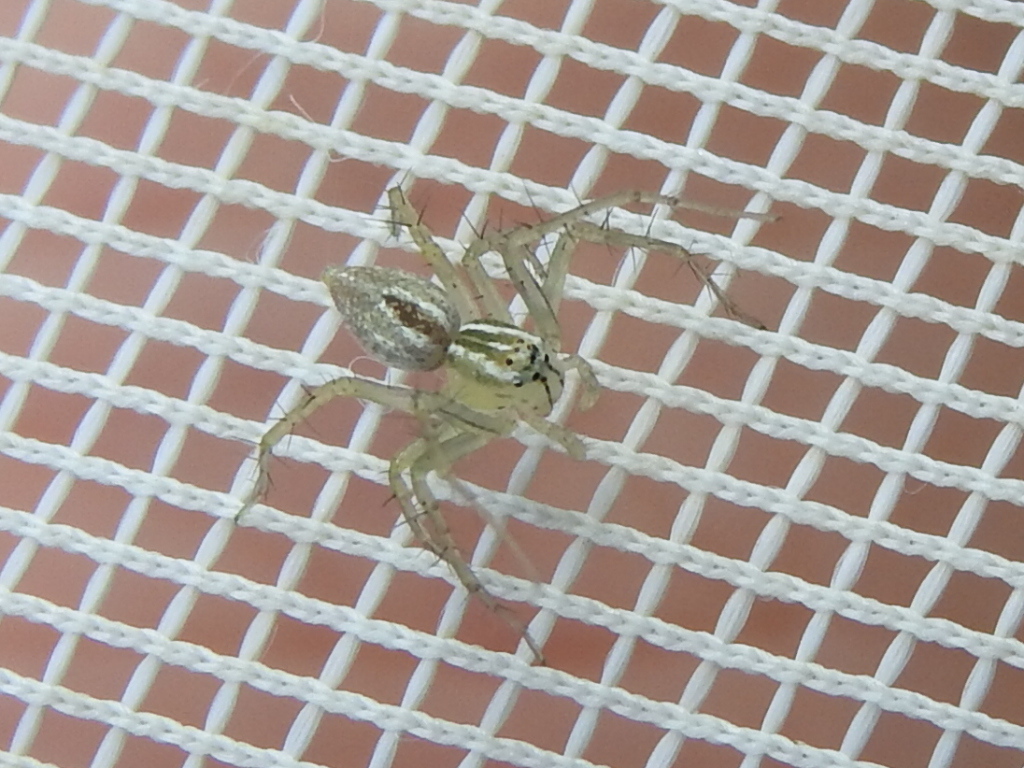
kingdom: Animalia
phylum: Arthropoda
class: Arachnida
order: Araneae
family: Oxyopidae
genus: Oxyopes
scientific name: Oxyopes salticus
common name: Lynx spiders
